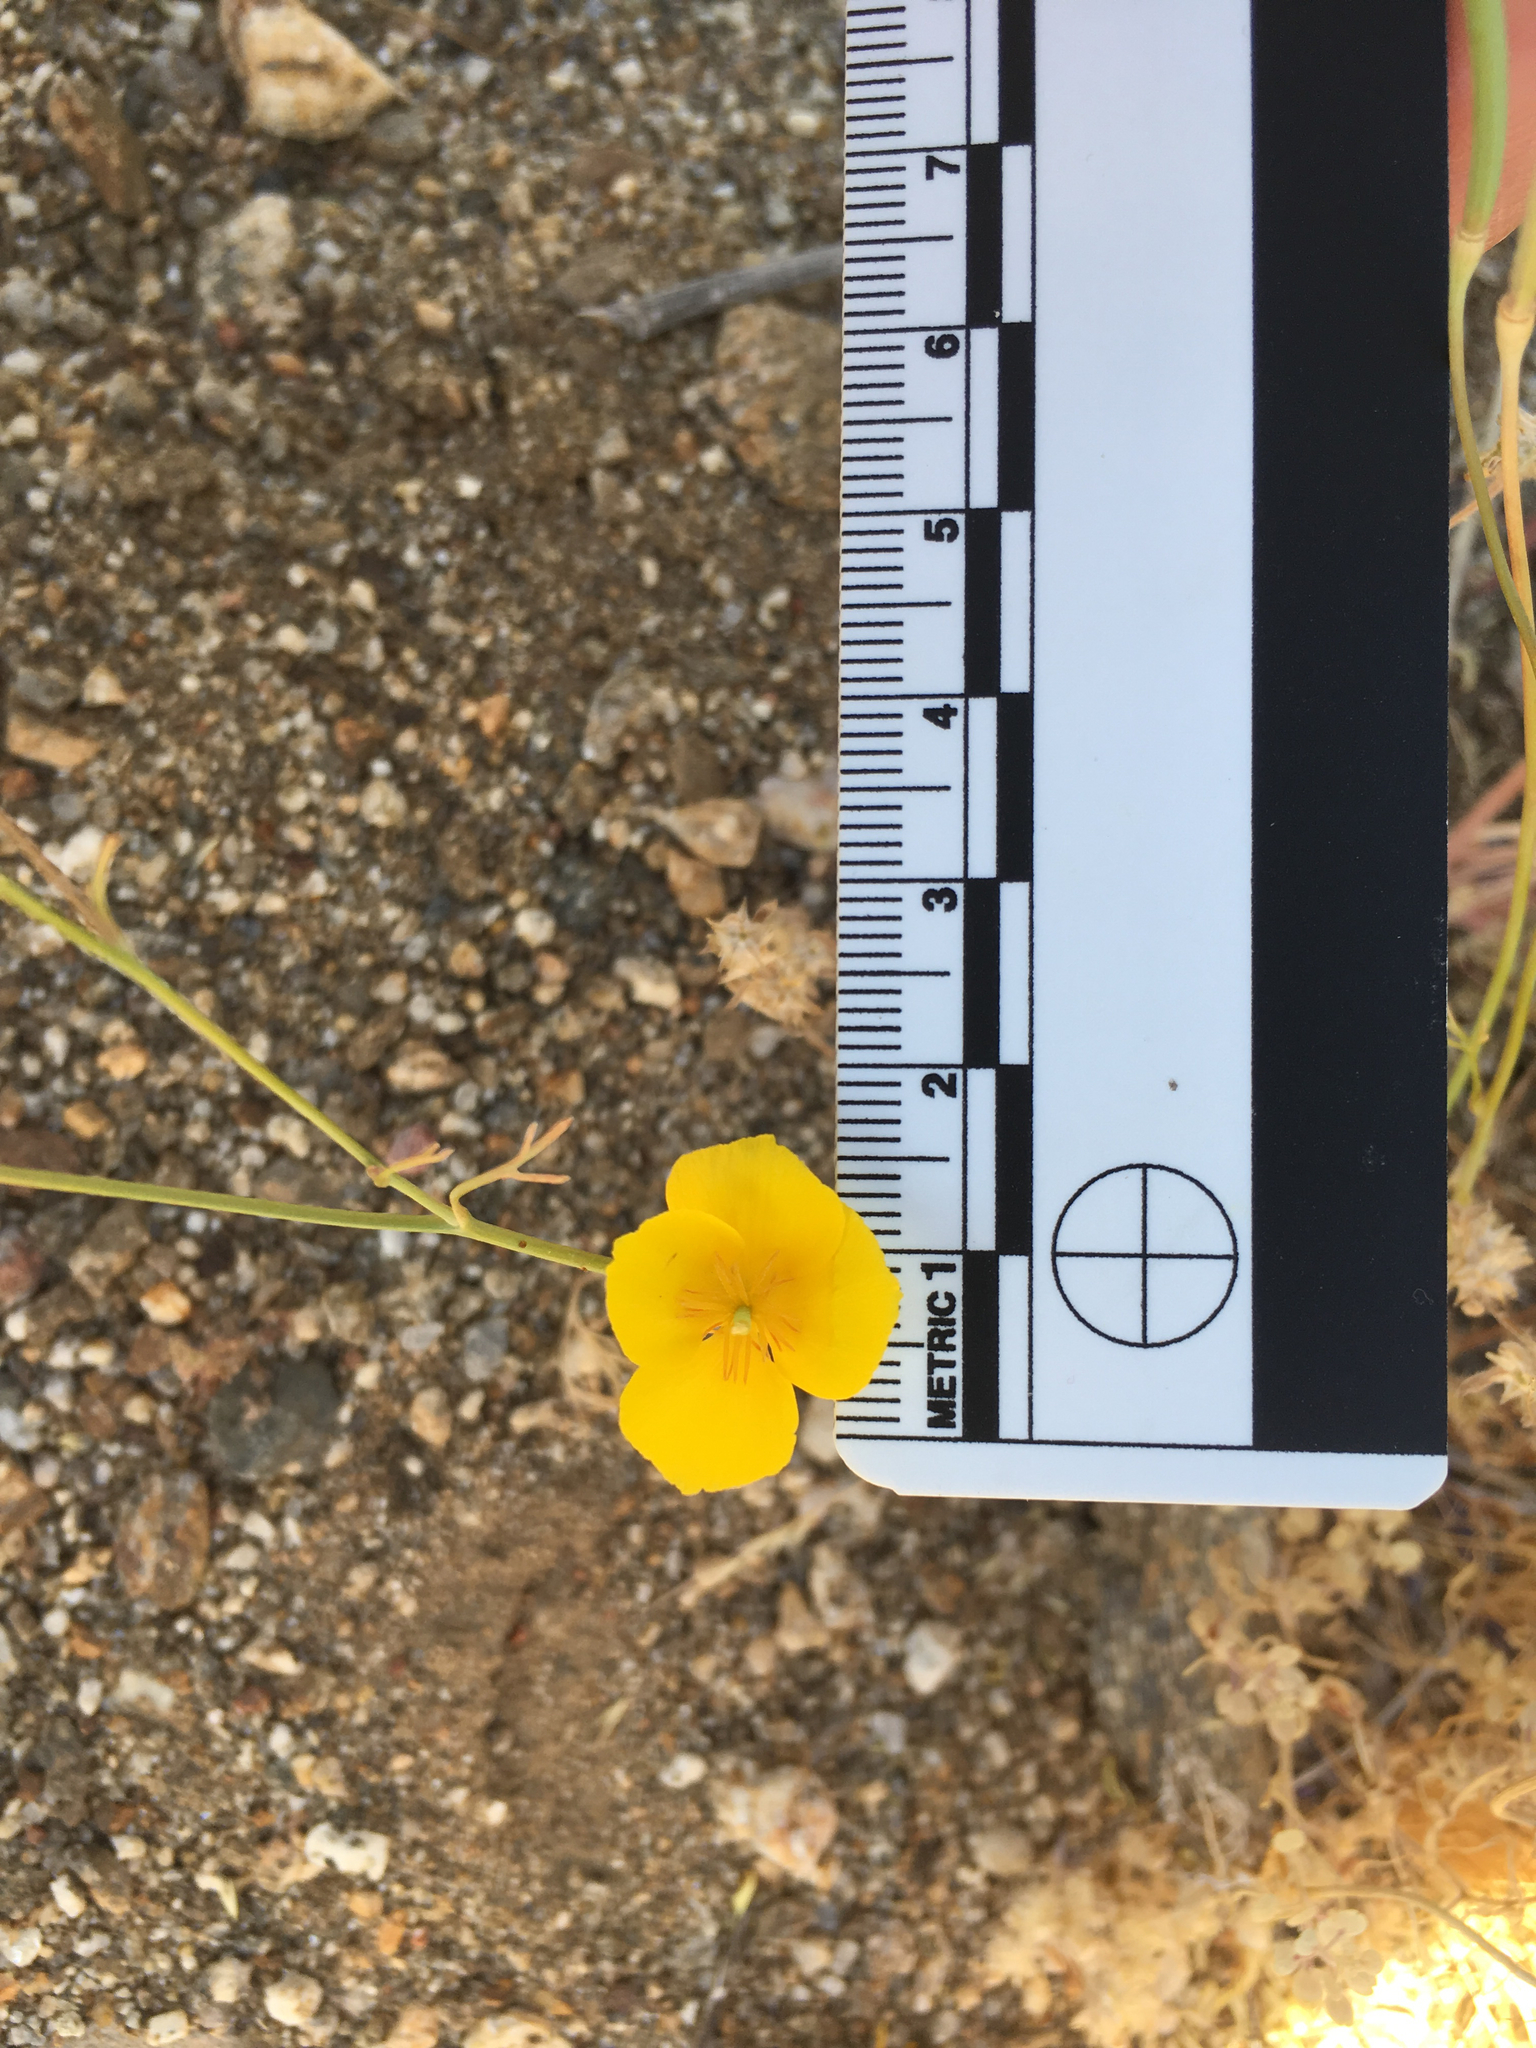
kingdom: Plantae
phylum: Tracheophyta
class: Magnoliopsida
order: Ranunculales
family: Papaveraceae
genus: Eschscholzia
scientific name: Eschscholzia parishii
